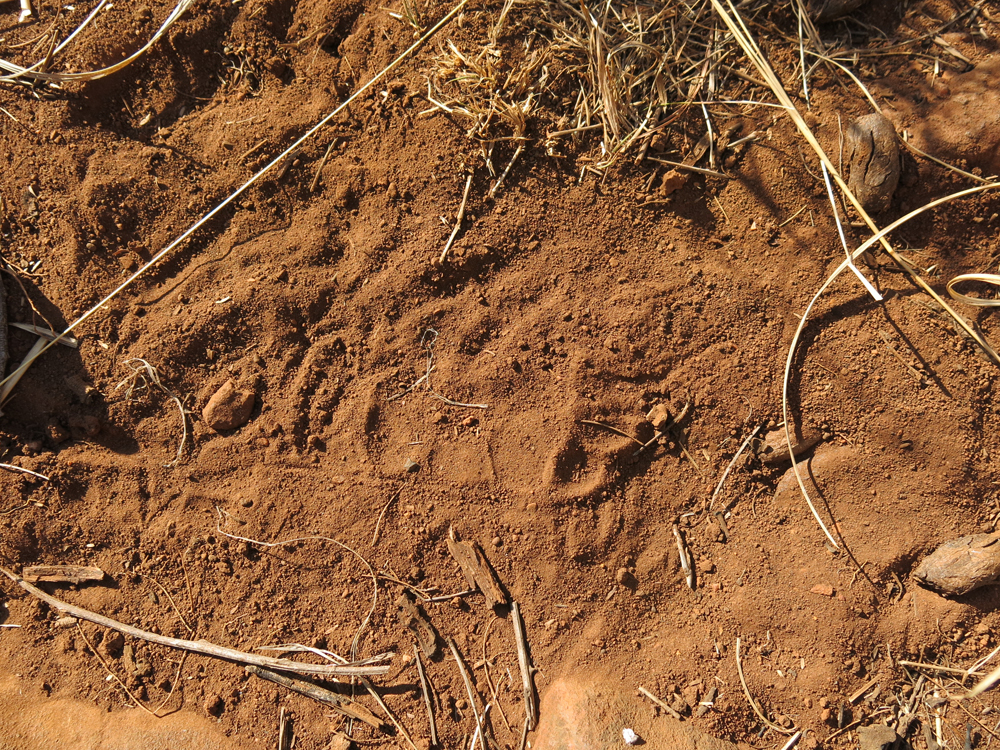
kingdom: Animalia
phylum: Chordata
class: Mammalia
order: Rodentia
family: Hystricidae
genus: Hystrix
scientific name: Hystrix africaeaustralis
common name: Cape porcupine
